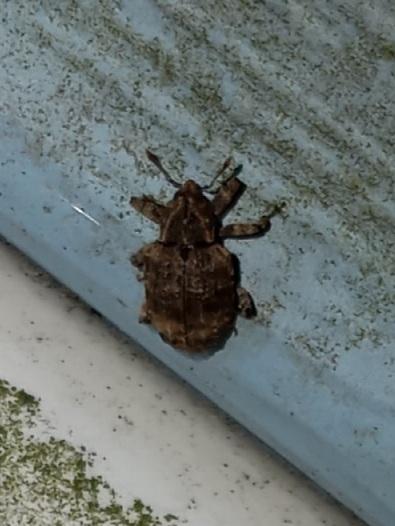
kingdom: Animalia
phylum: Arthropoda
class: Insecta
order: Coleoptera
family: Curculionidae
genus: Conotrachelus
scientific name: Conotrachelus seniculus
